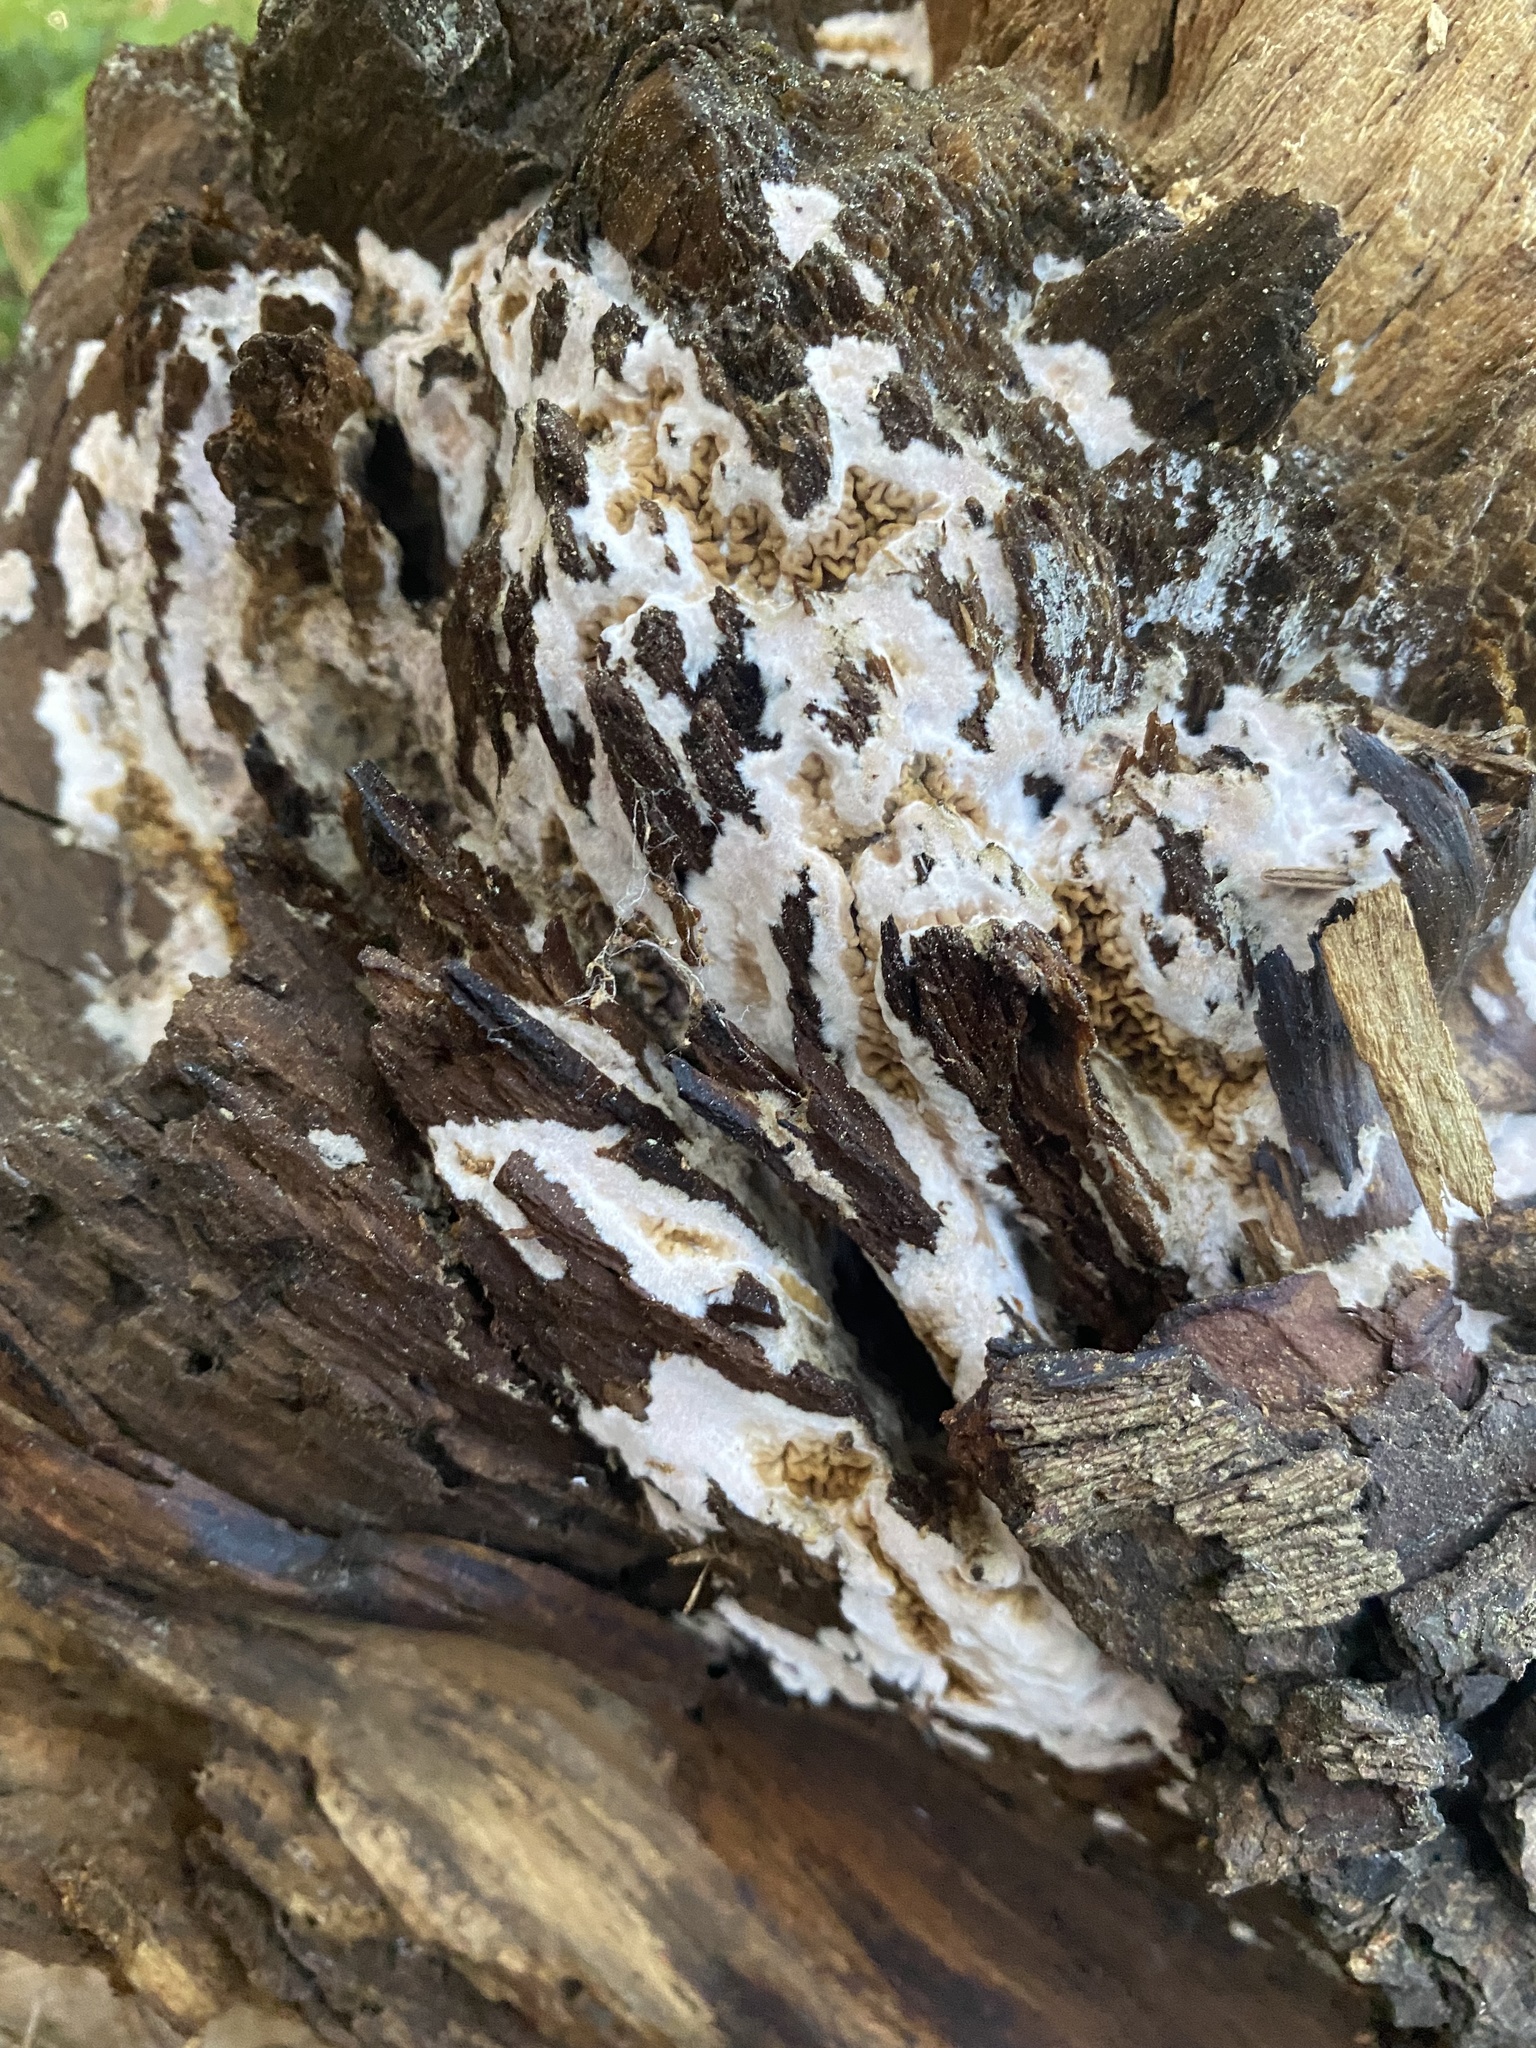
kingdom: Fungi
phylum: Basidiomycota
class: Agaricomycetes
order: Boletales
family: Serpulaceae
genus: Serpula
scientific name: Serpula himantioides
